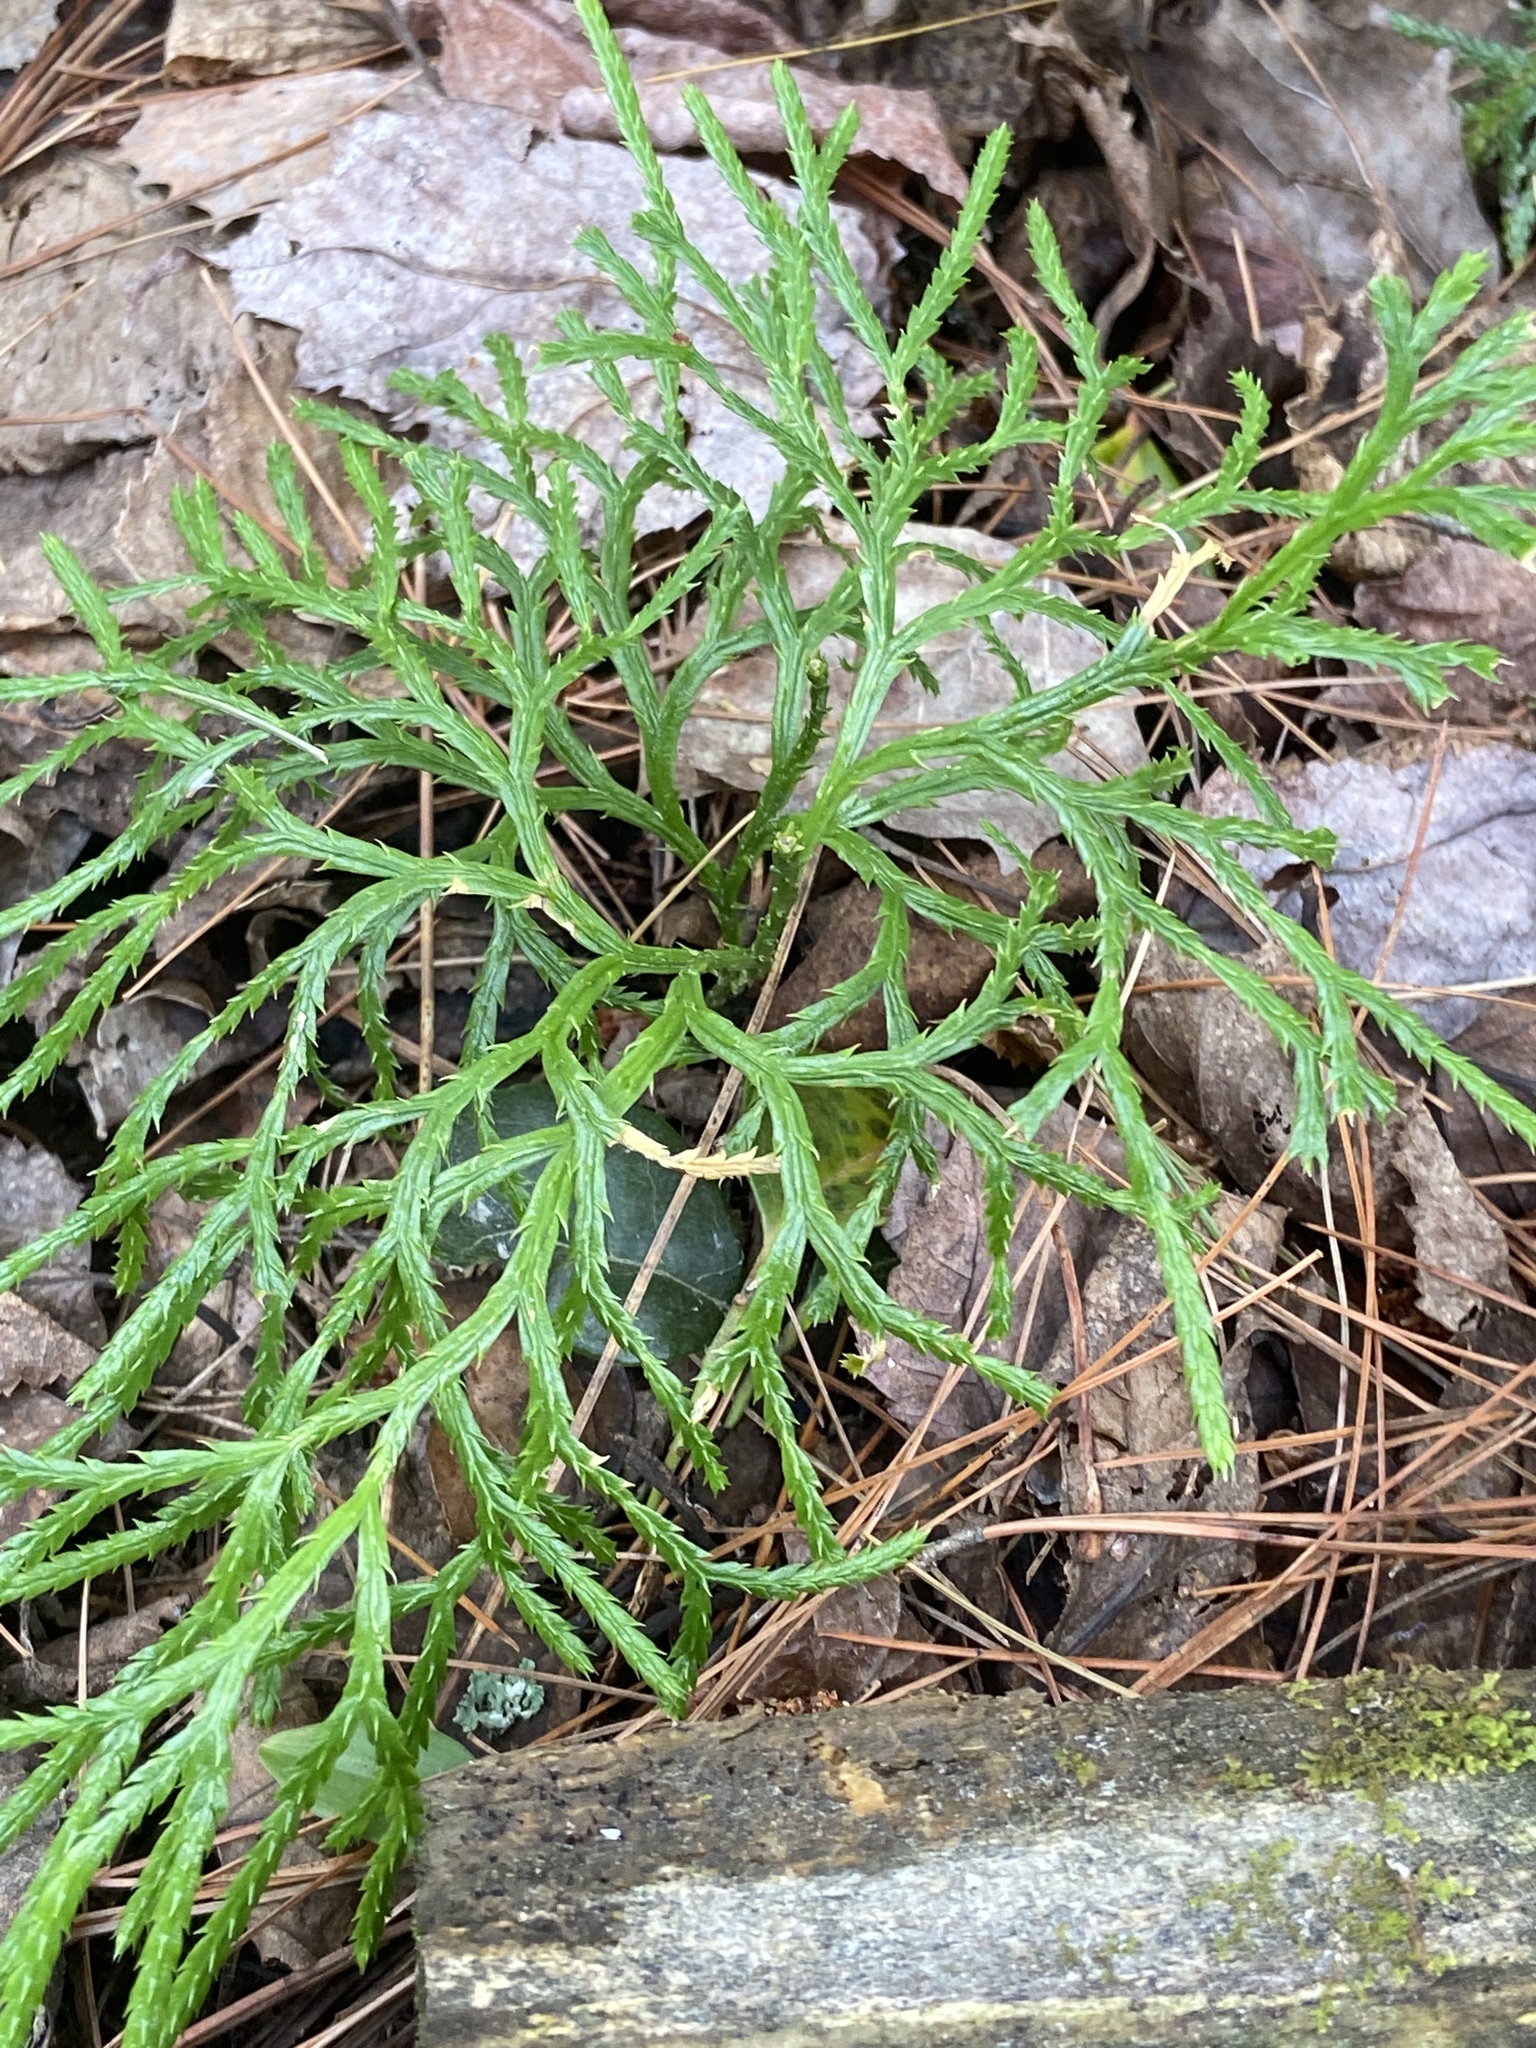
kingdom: Plantae
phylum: Tracheophyta
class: Lycopodiopsida
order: Lycopodiales
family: Lycopodiaceae
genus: Diphasiastrum
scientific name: Diphasiastrum complanatum
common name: Northern running-pine
